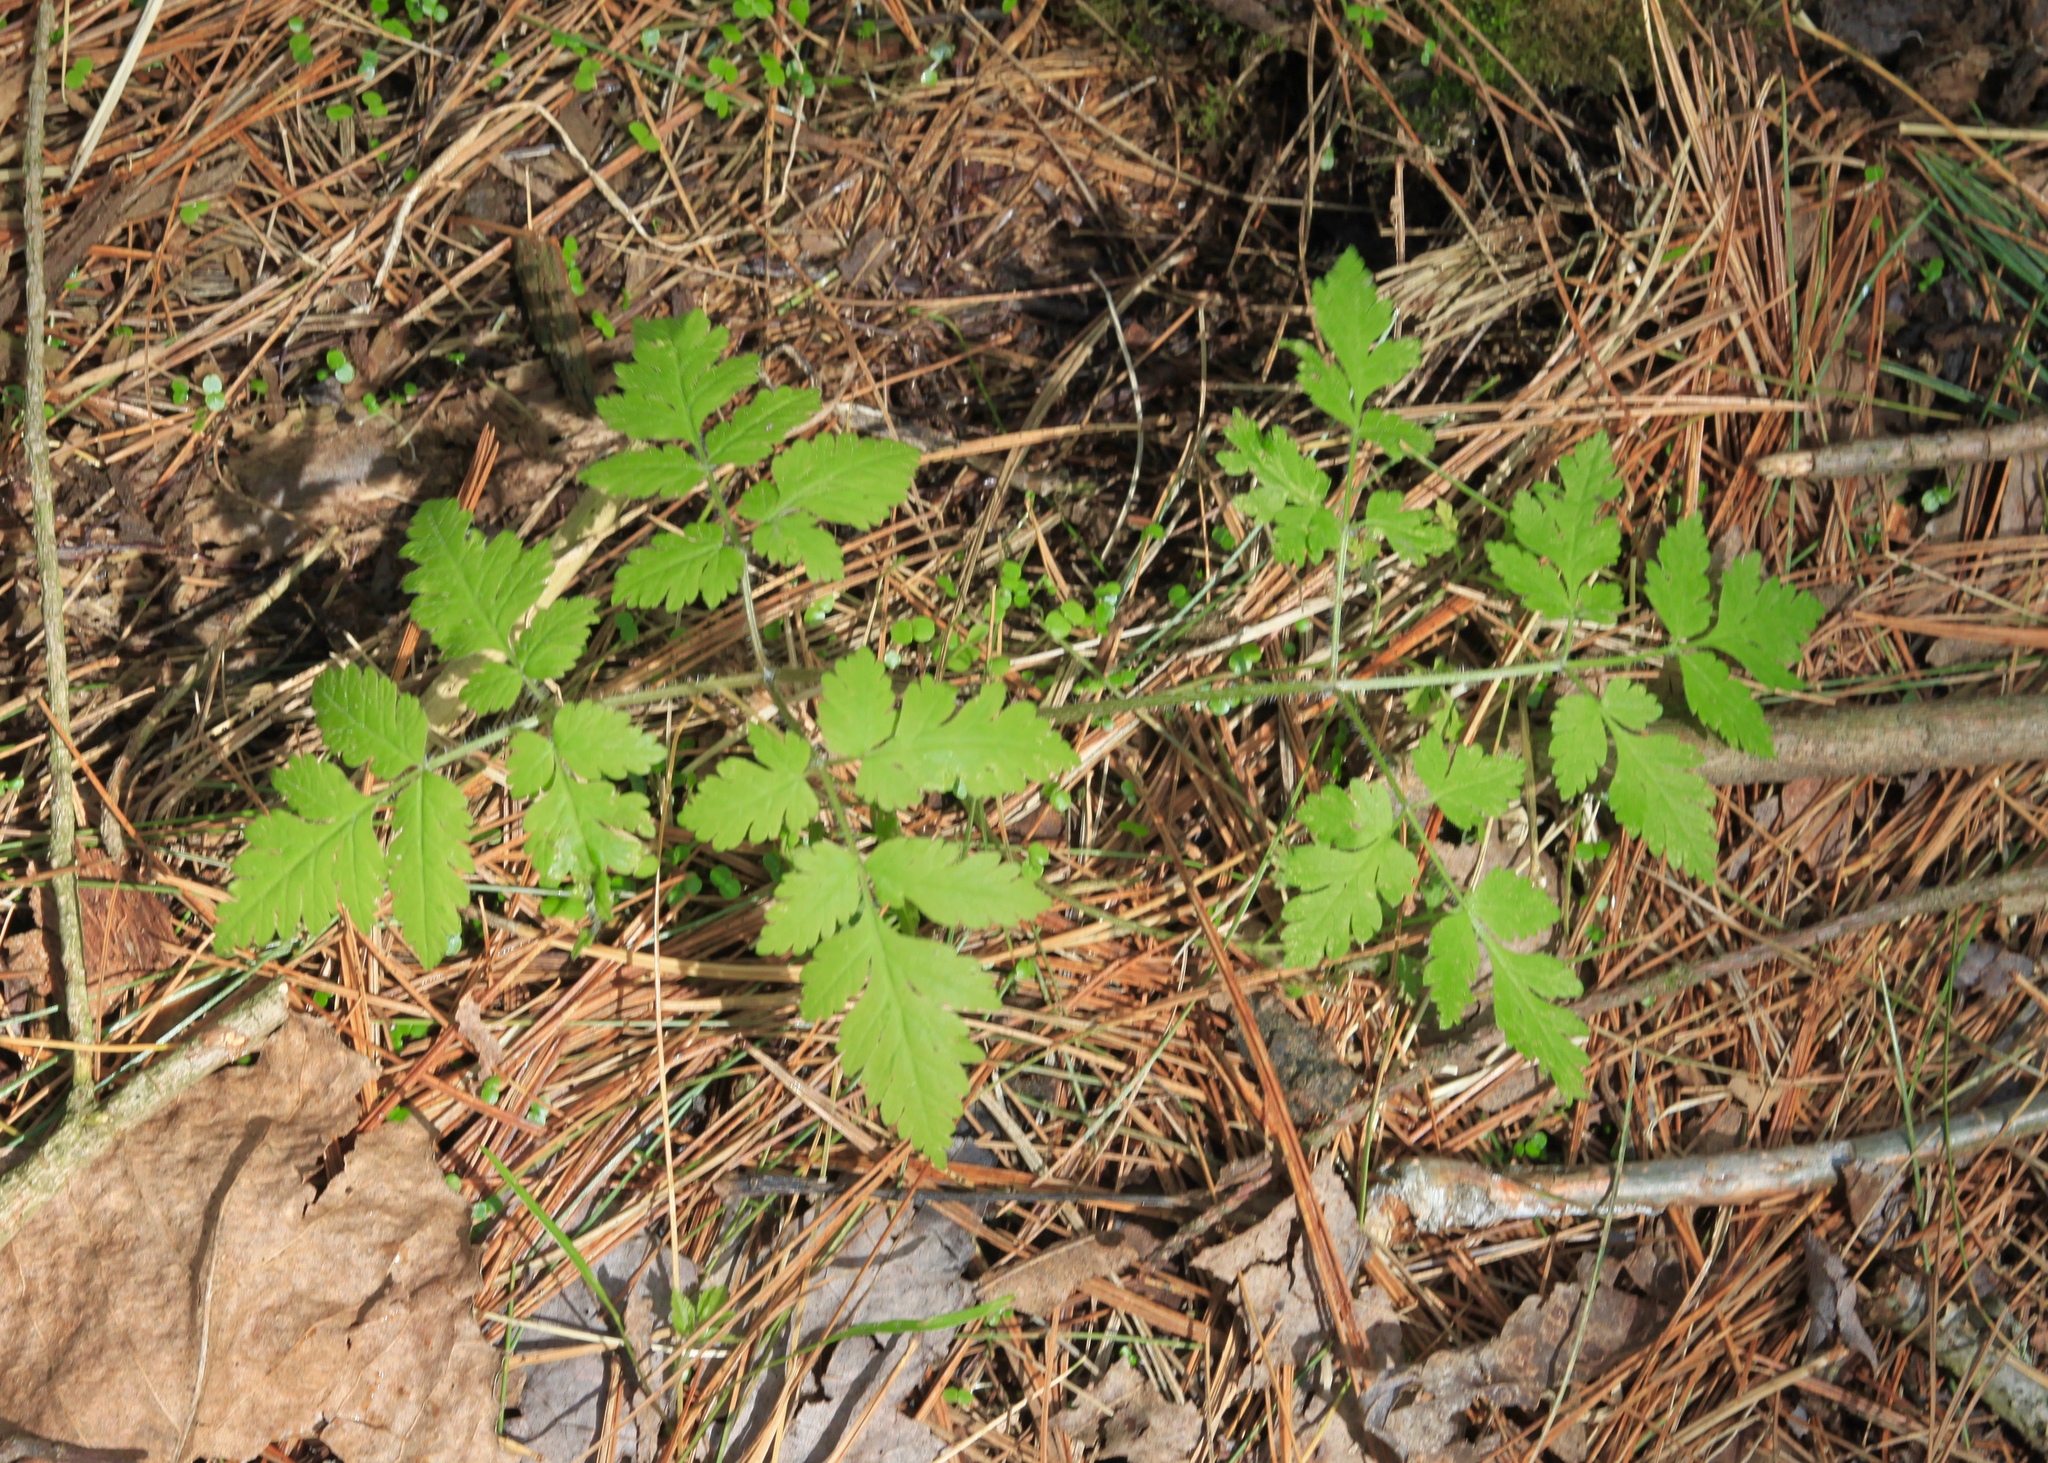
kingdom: Plantae
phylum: Tracheophyta
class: Magnoliopsida
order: Apiales
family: Apiaceae
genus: Osmorhiza
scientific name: Osmorhiza claytonii
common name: Hairy sweet cicely
